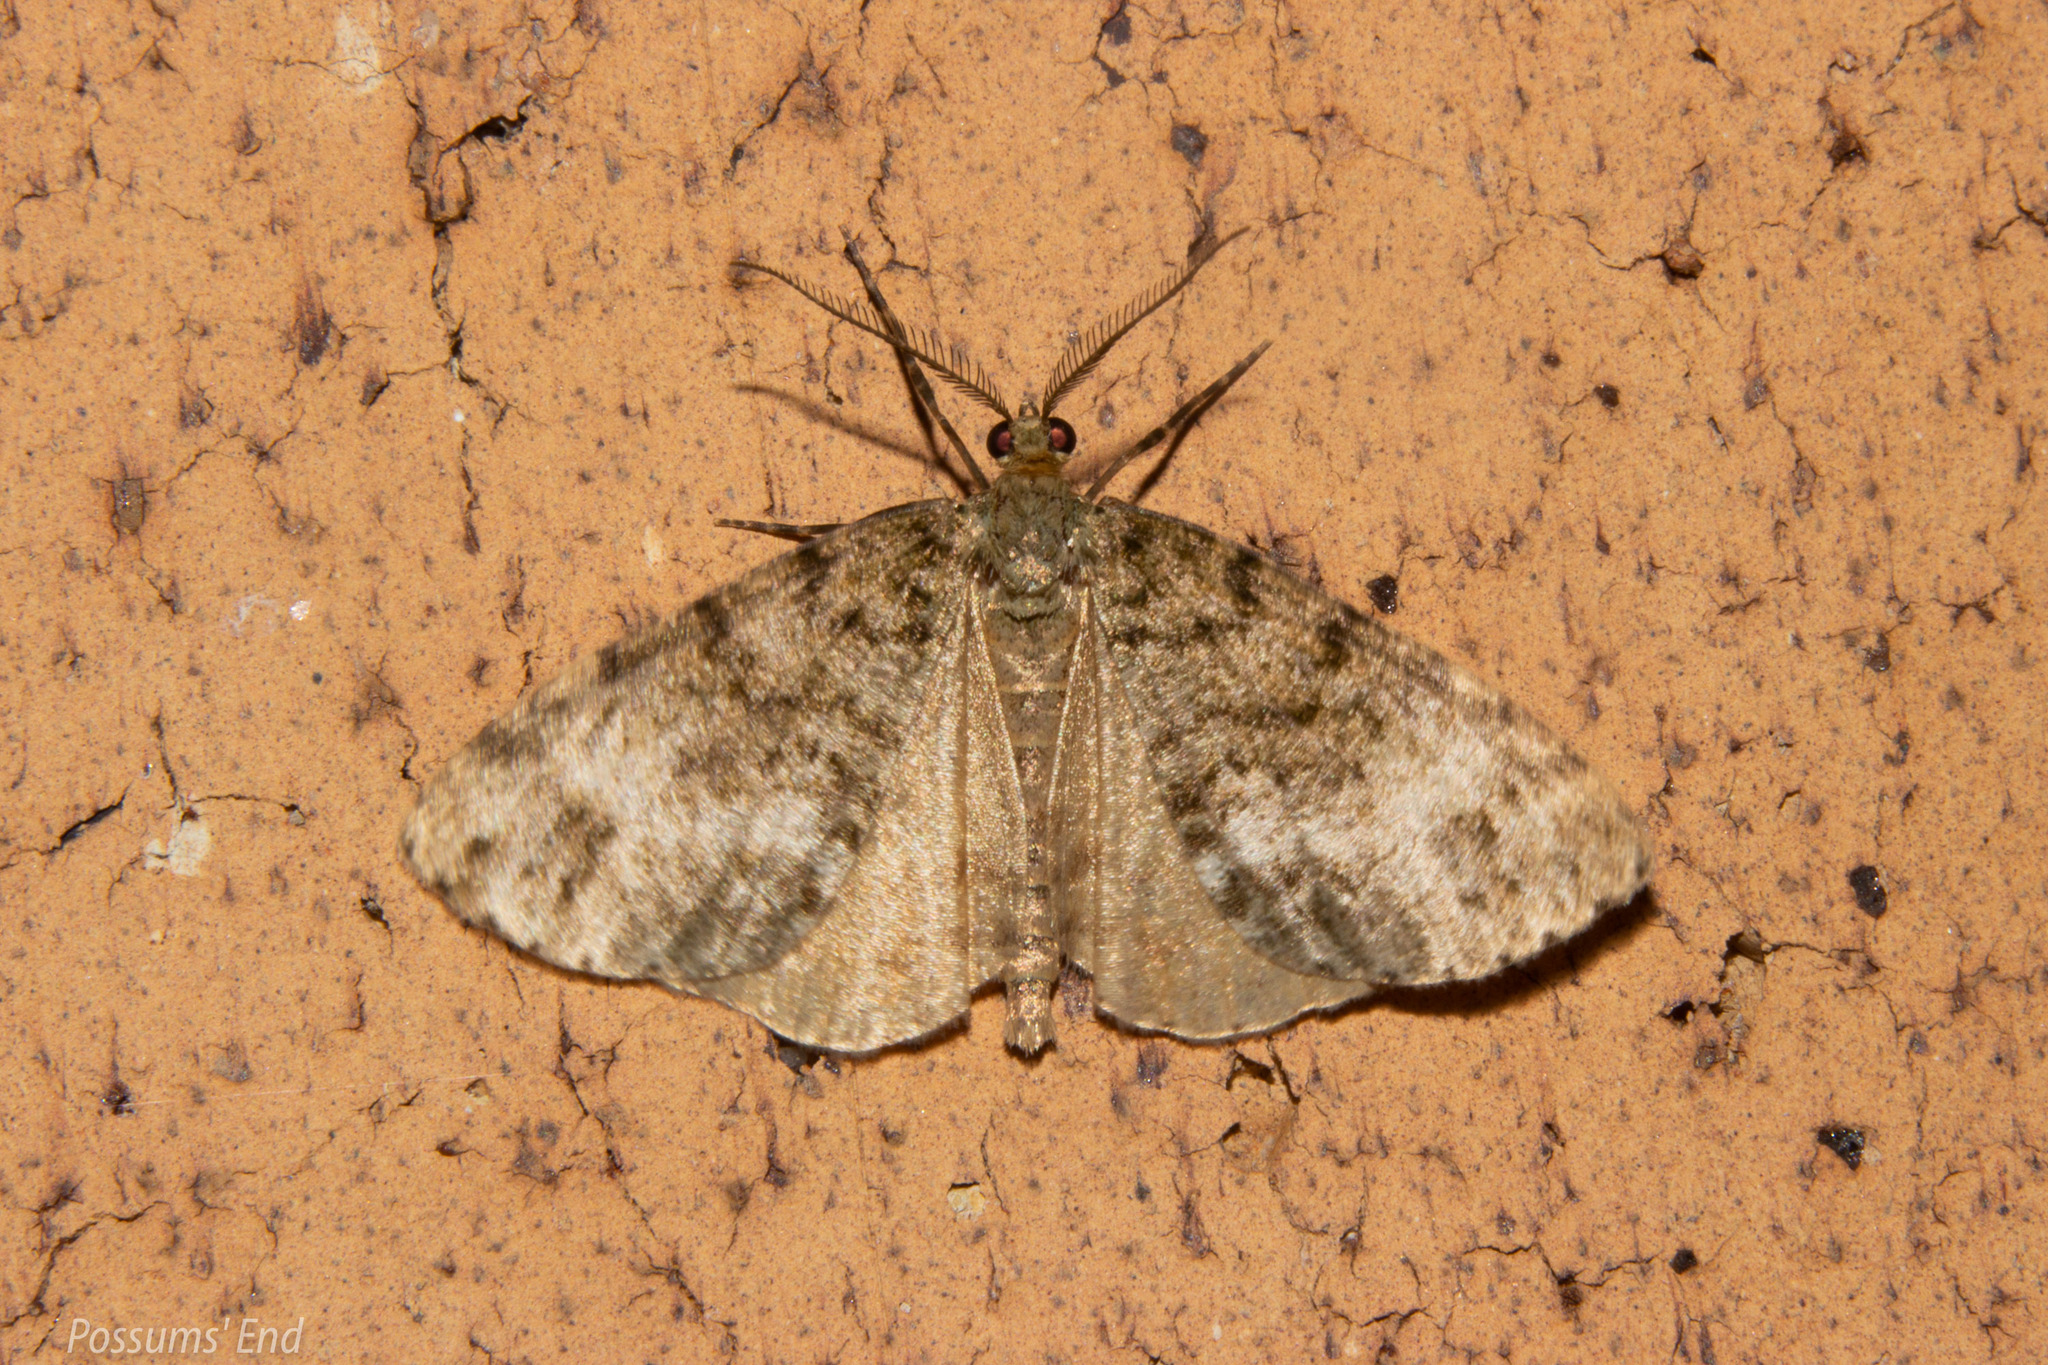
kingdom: Animalia
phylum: Arthropoda
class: Insecta
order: Lepidoptera
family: Geometridae
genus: Pseudocoremia
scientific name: Pseudocoremia indistincta
